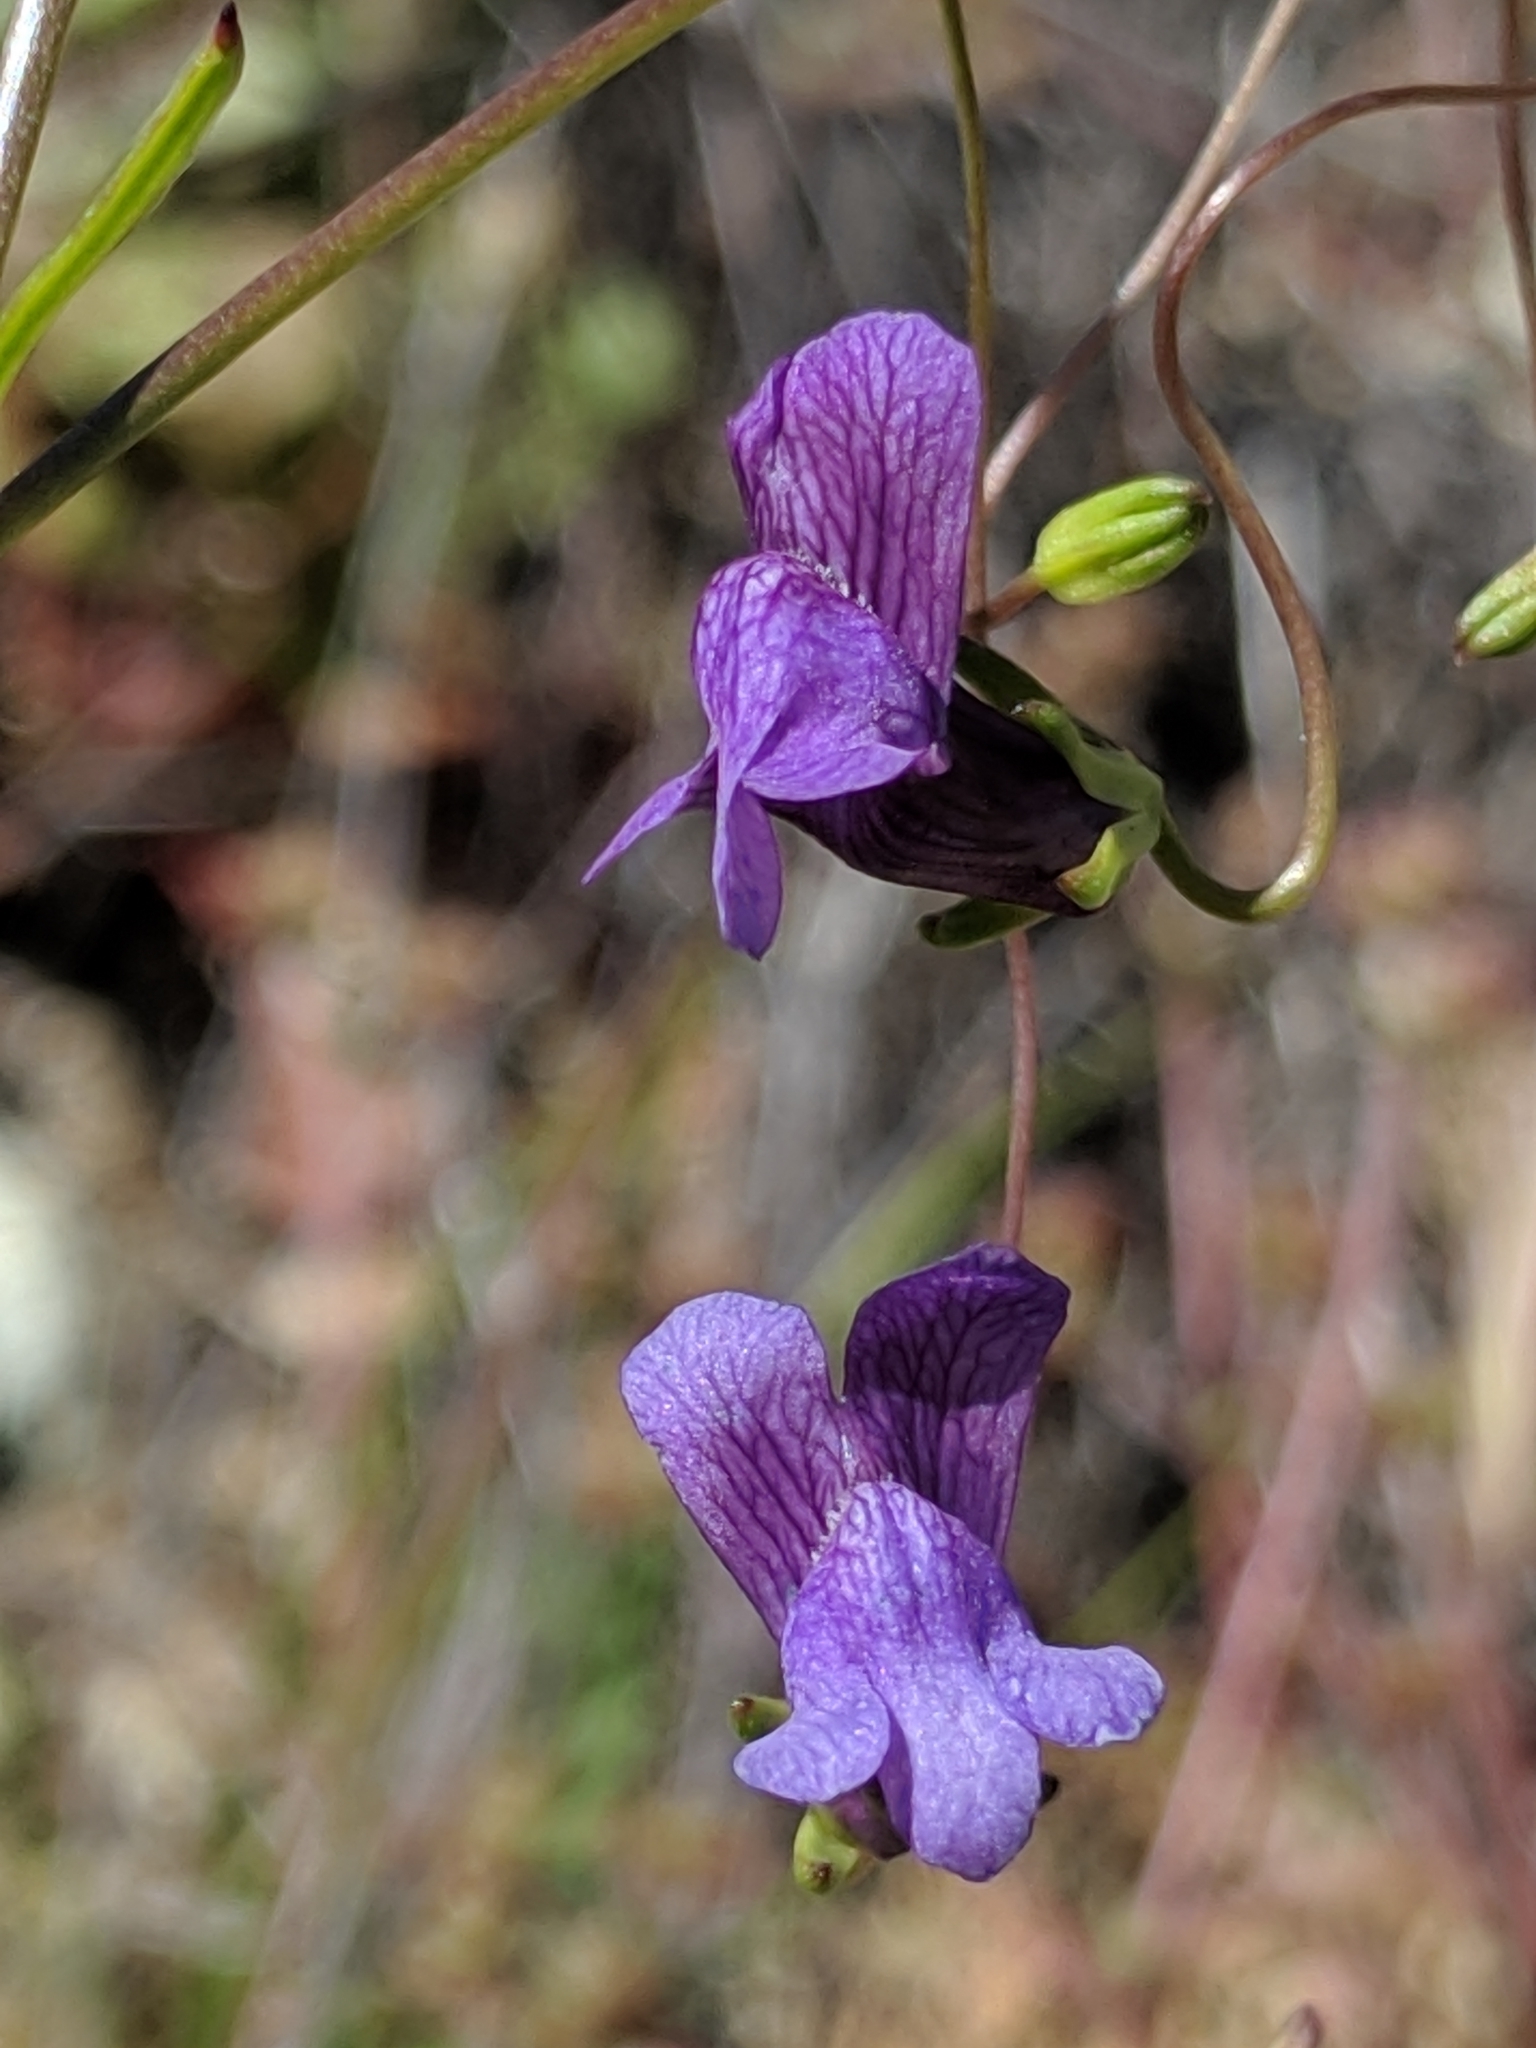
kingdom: Plantae
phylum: Tracheophyta
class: Magnoliopsida
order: Lamiales
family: Plantaginaceae
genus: Neogaerrhinum
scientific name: Neogaerrhinum strictum
